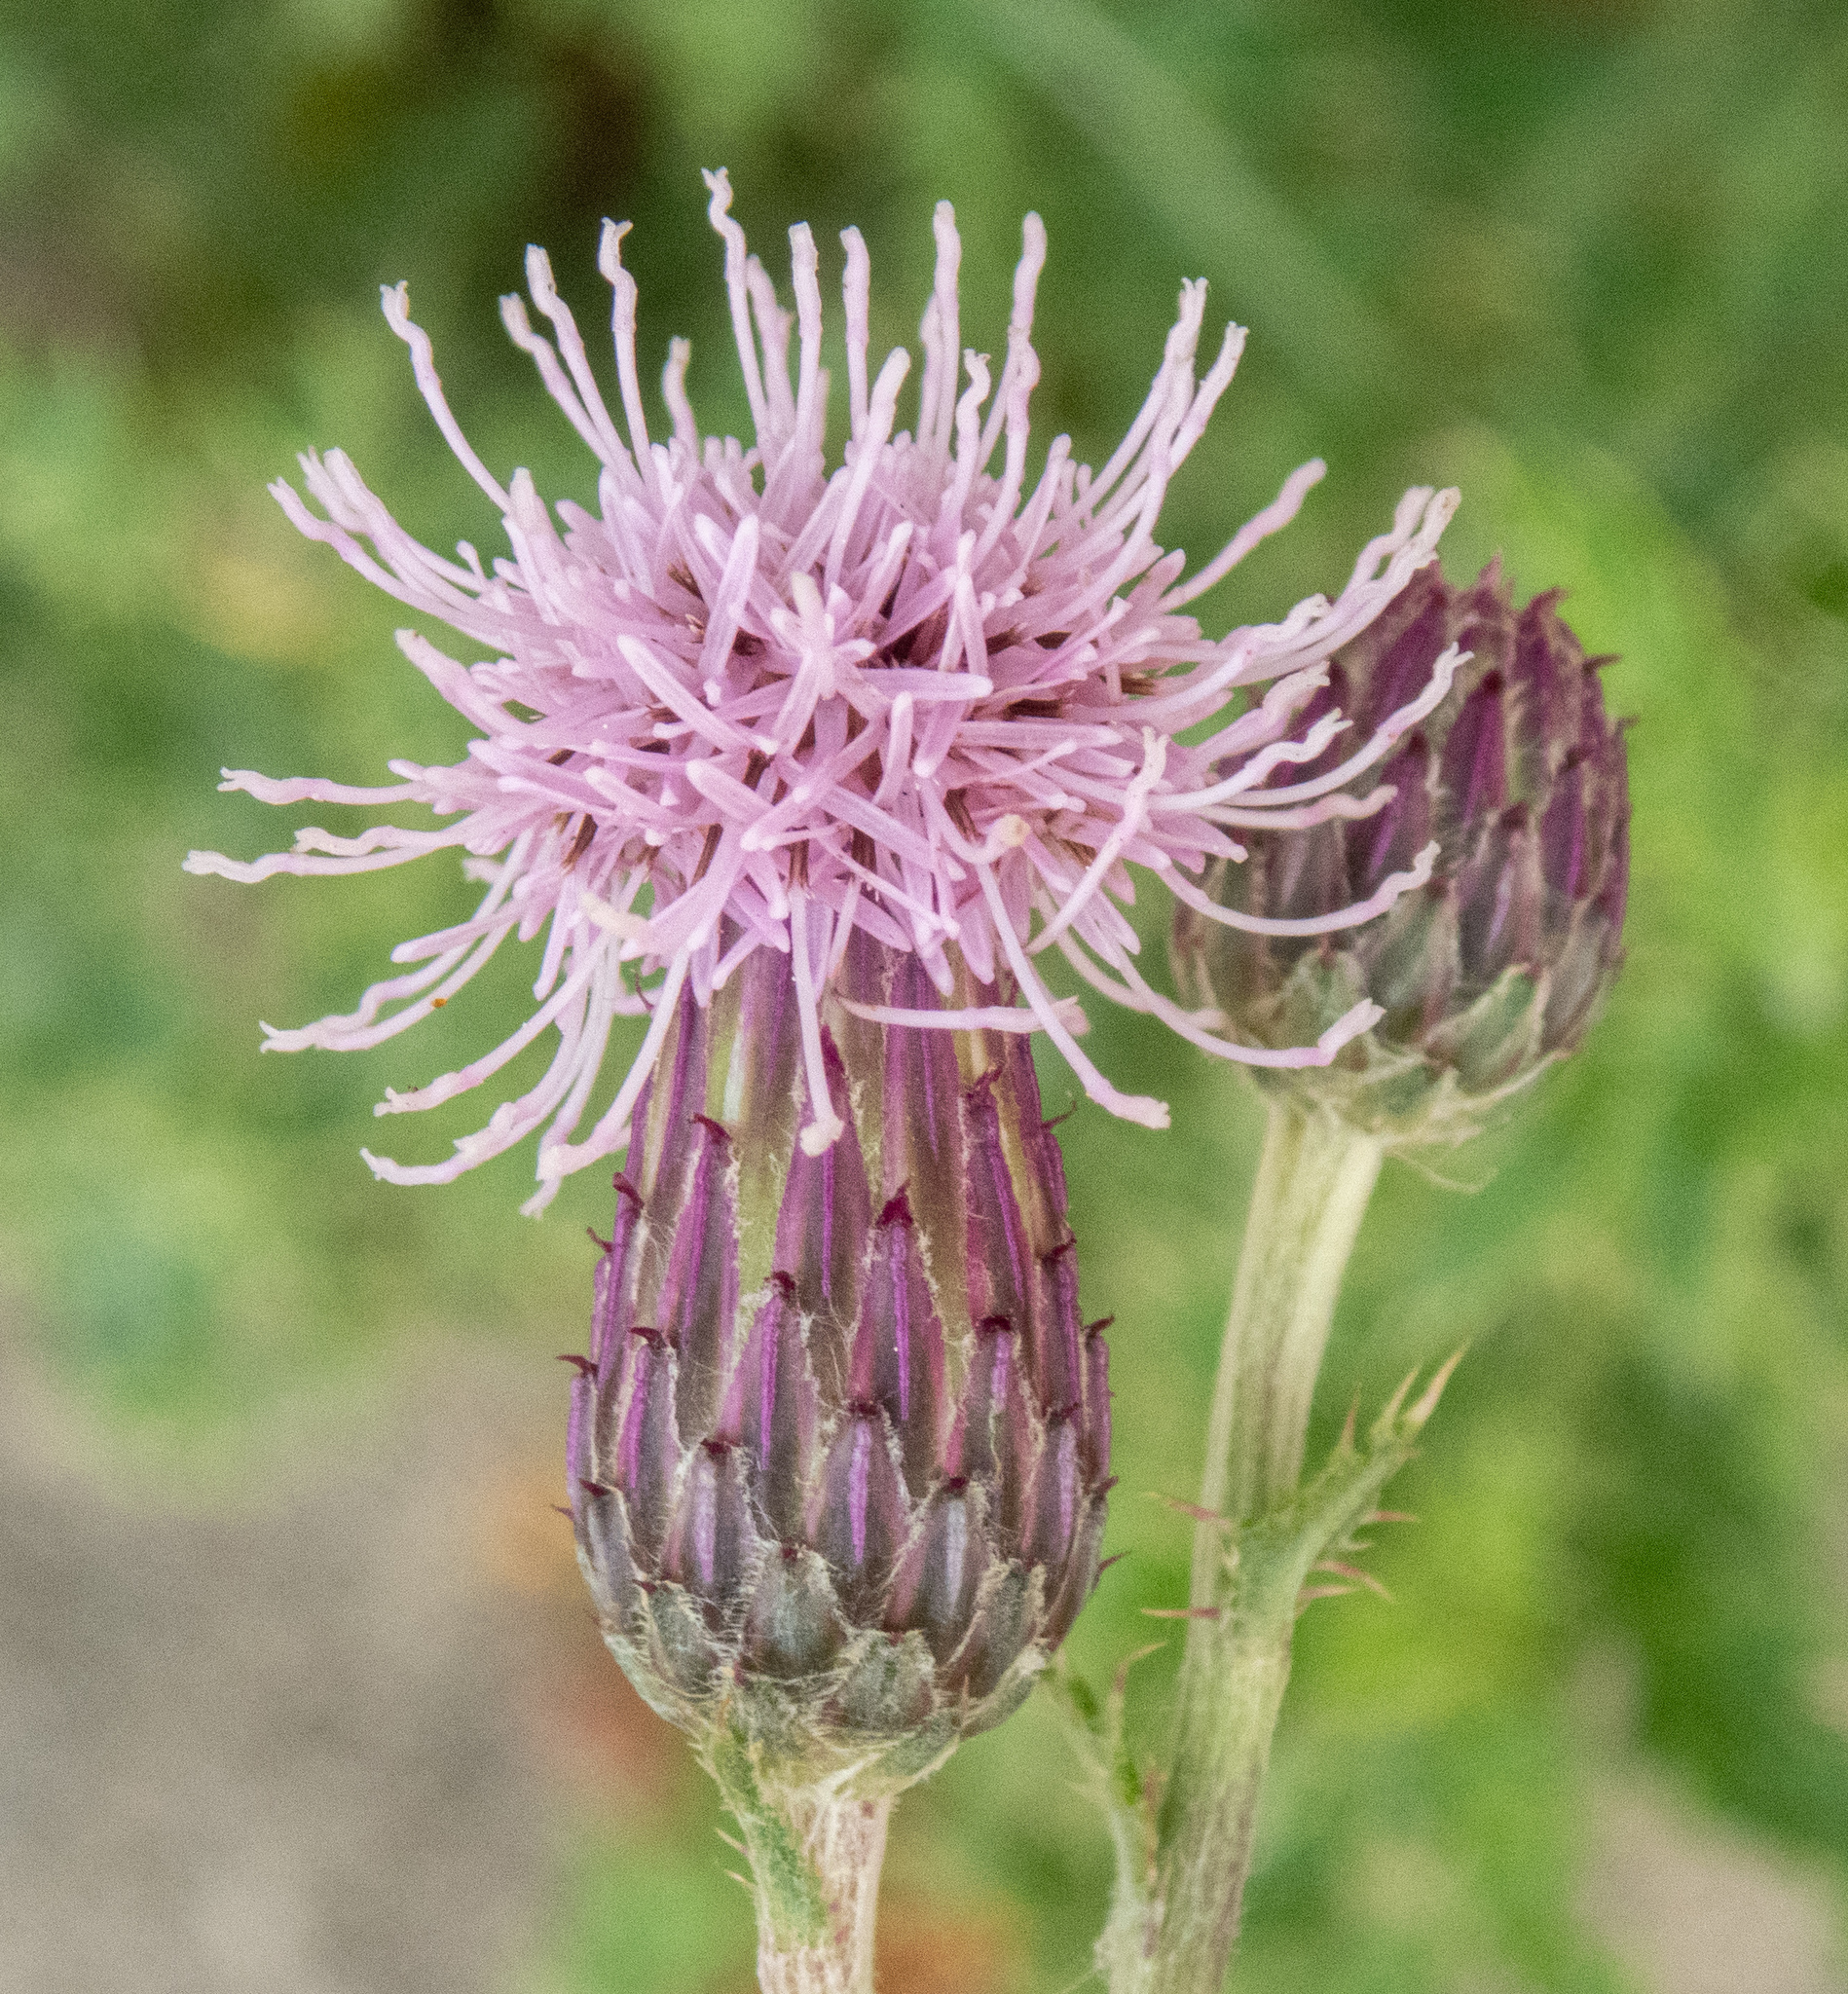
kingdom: Plantae
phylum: Tracheophyta
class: Magnoliopsida
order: Asterales
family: Asteraceae
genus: Cirsium
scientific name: Cirsium arvense
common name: Creeping thistle
